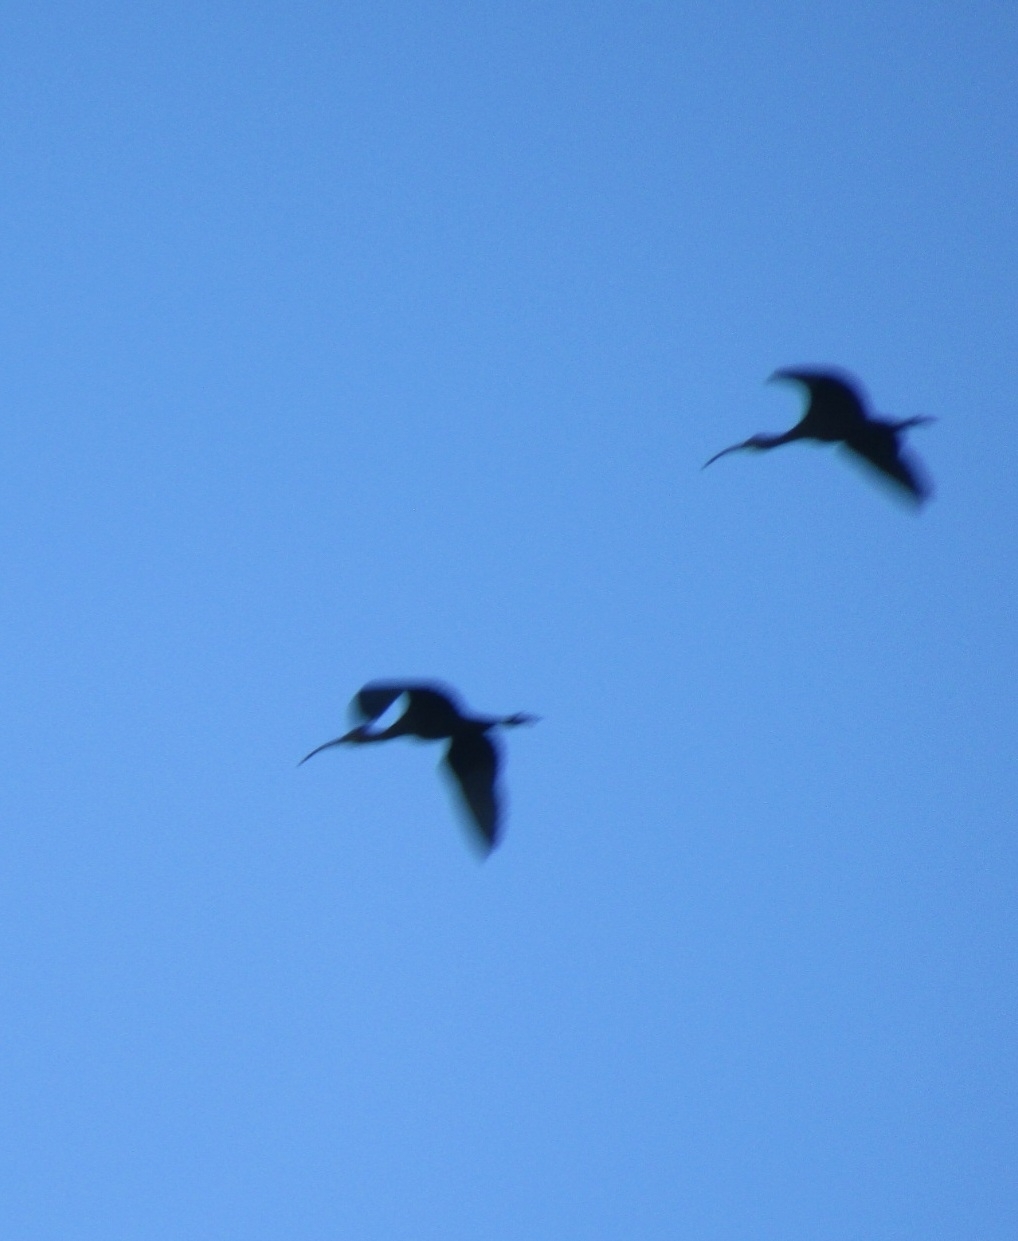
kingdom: Animalia
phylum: Chordata
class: Aves
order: Pelecaniformes
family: Threskiornithidae
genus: Plegadis
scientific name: Plegadis chihi
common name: White-faced ibis
